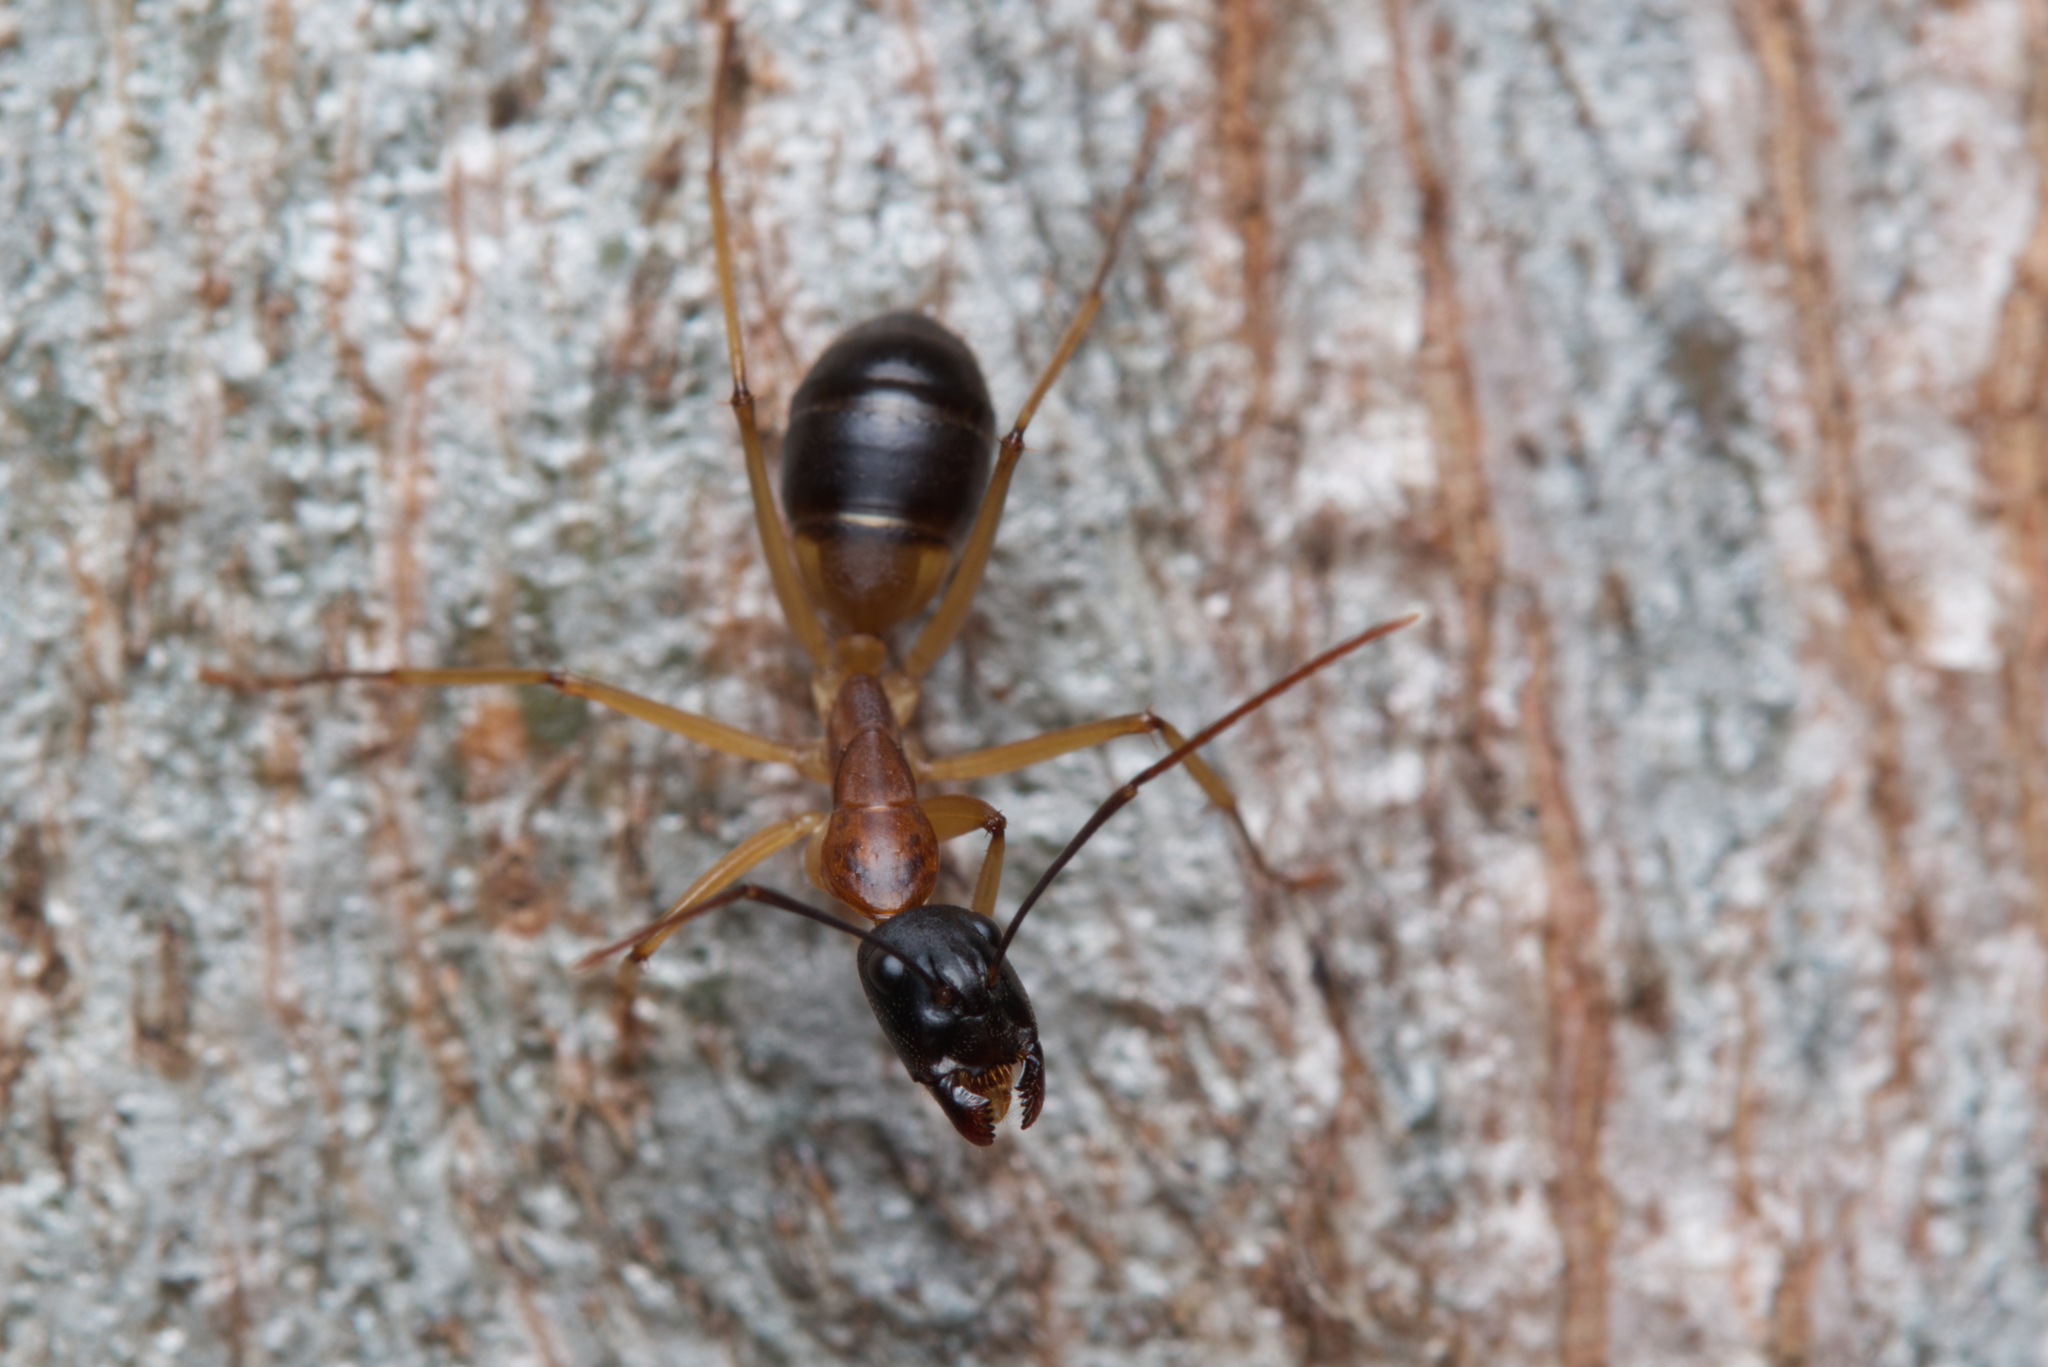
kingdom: Animalia
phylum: Arthropoda
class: Insecta
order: Hymenoptera
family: Formicidae
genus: Camponotus
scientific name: Camponotus consobrinus
